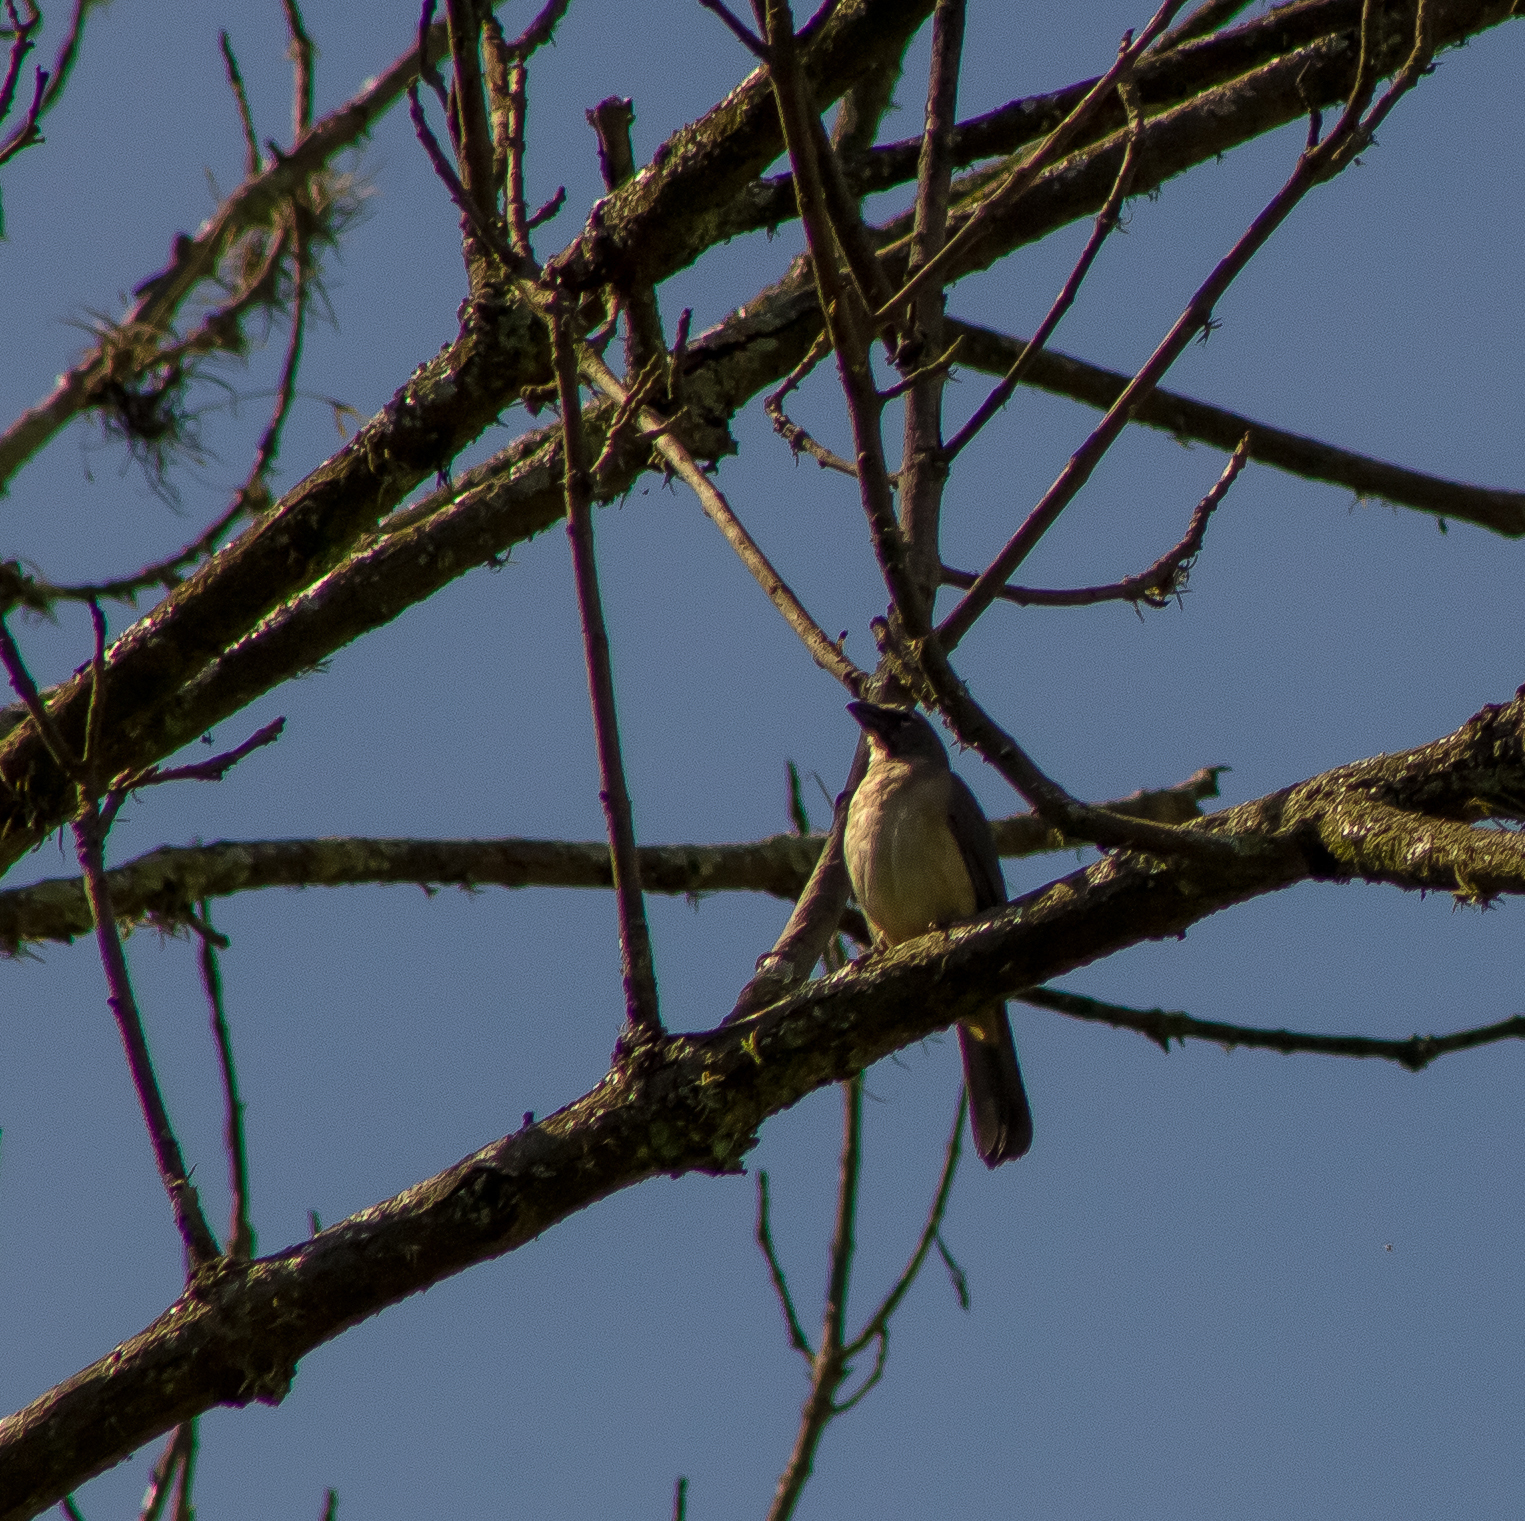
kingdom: Animalia
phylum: Chordata
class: Aves
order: Passeriformes
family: Thraupidae
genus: Saltator
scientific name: Saltator olivascens
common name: Caribbean grey saltator
